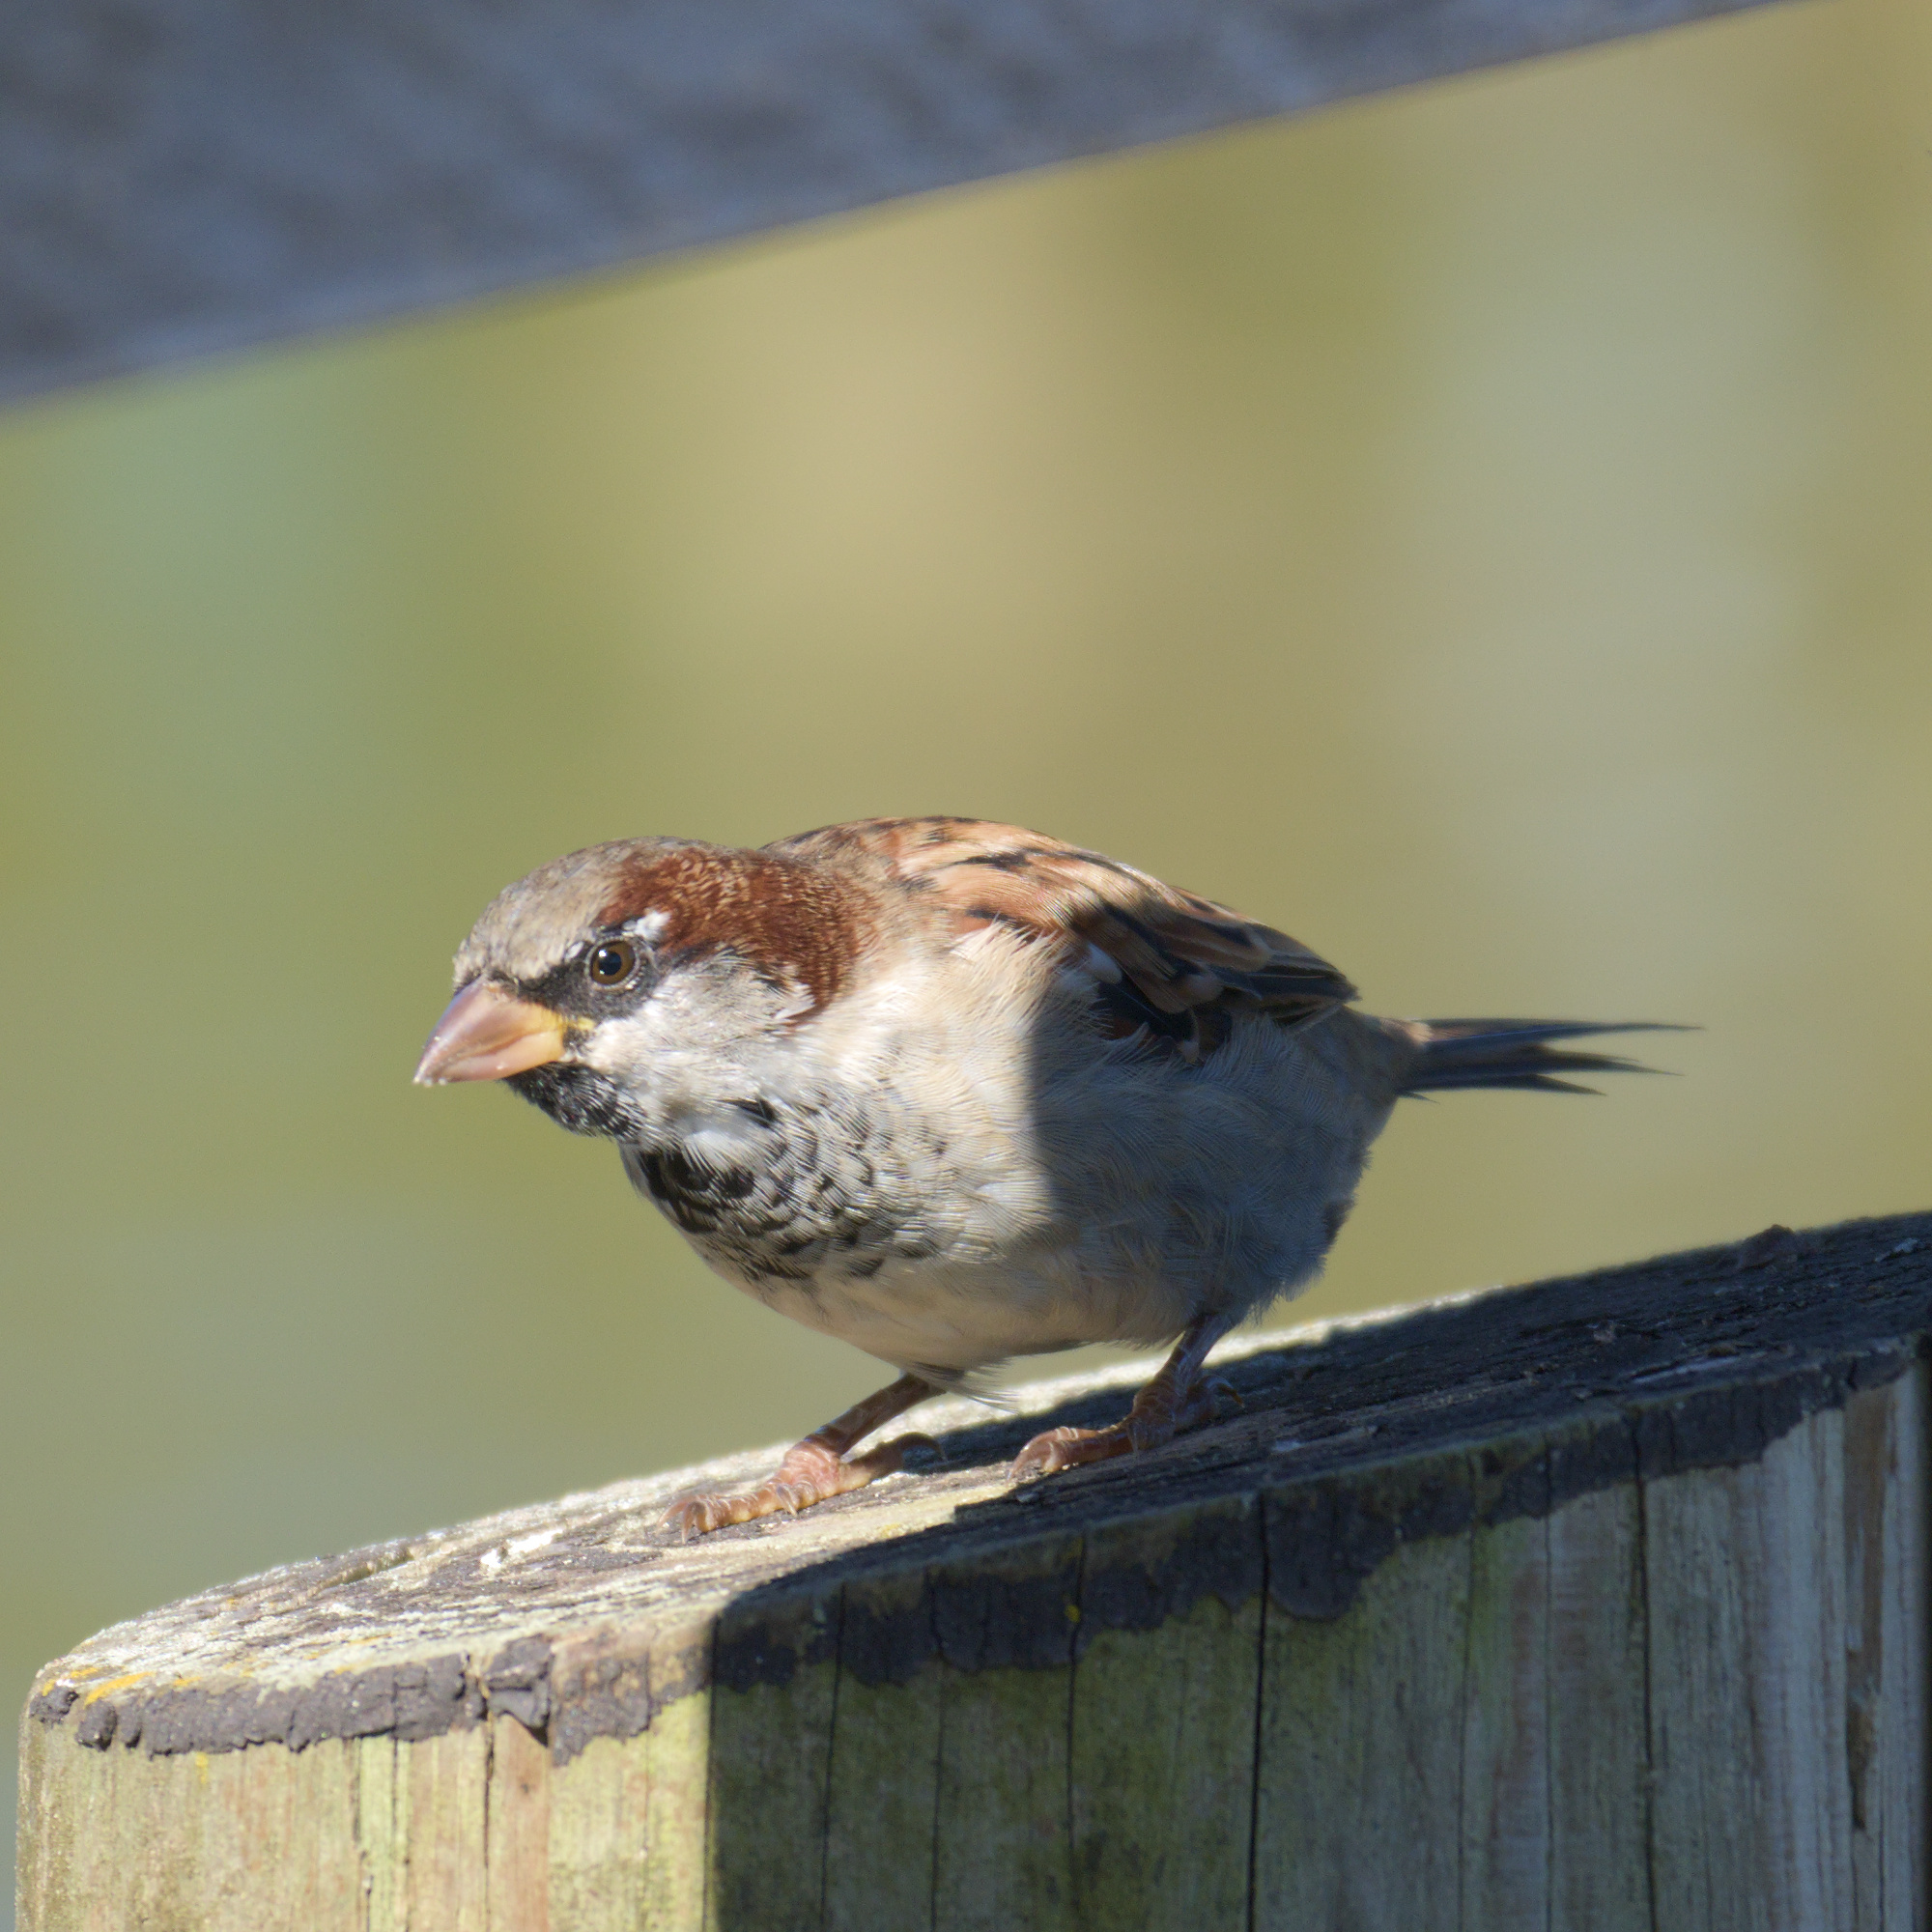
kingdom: Animalia
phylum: Chordata
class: Aves
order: Passeriformes
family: Passeridae
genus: Passer
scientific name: Passer domesticus
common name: House sparrow
